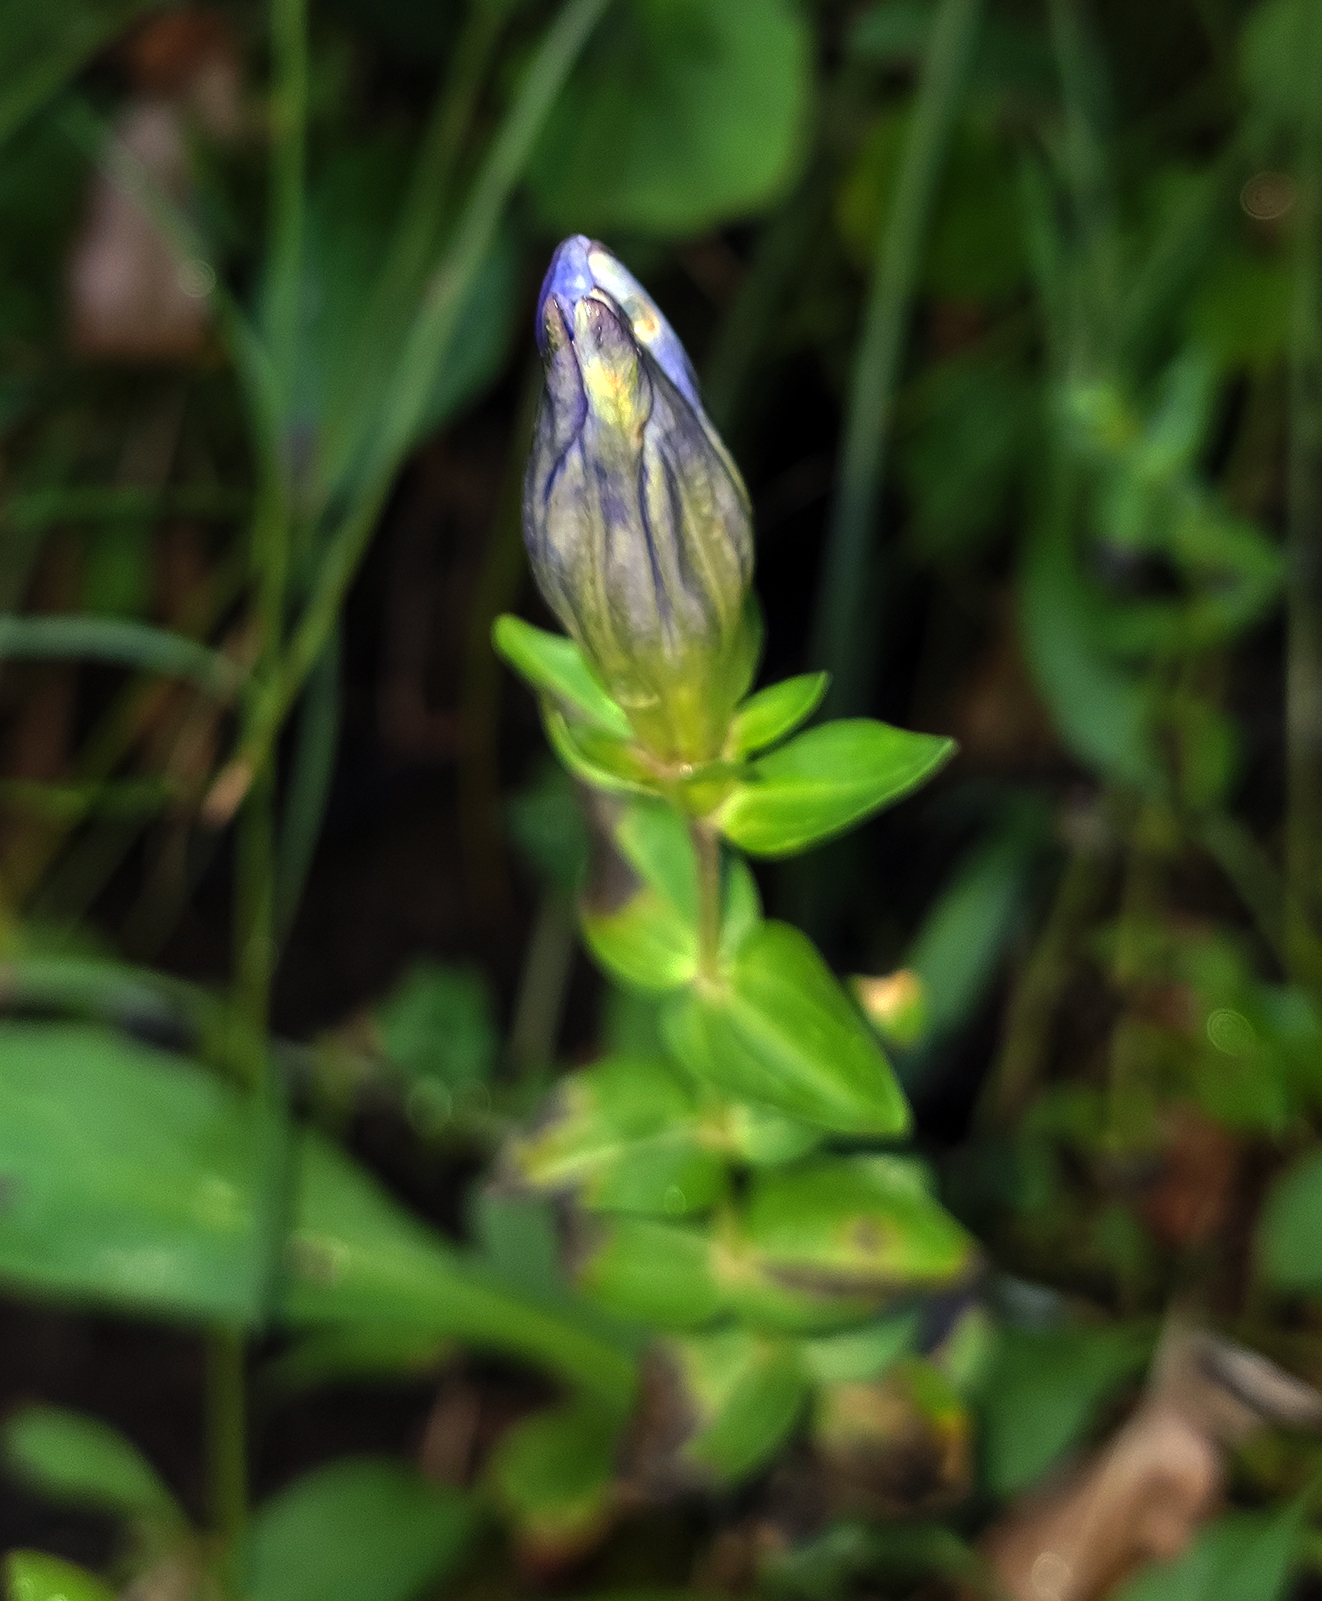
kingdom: Plantae
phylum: Tracheophyta
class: Magnoliopsida
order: Gentianales
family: Gentianaceae
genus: Gentiana
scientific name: Gentiana calycosa
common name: Rainier pleated gentian
